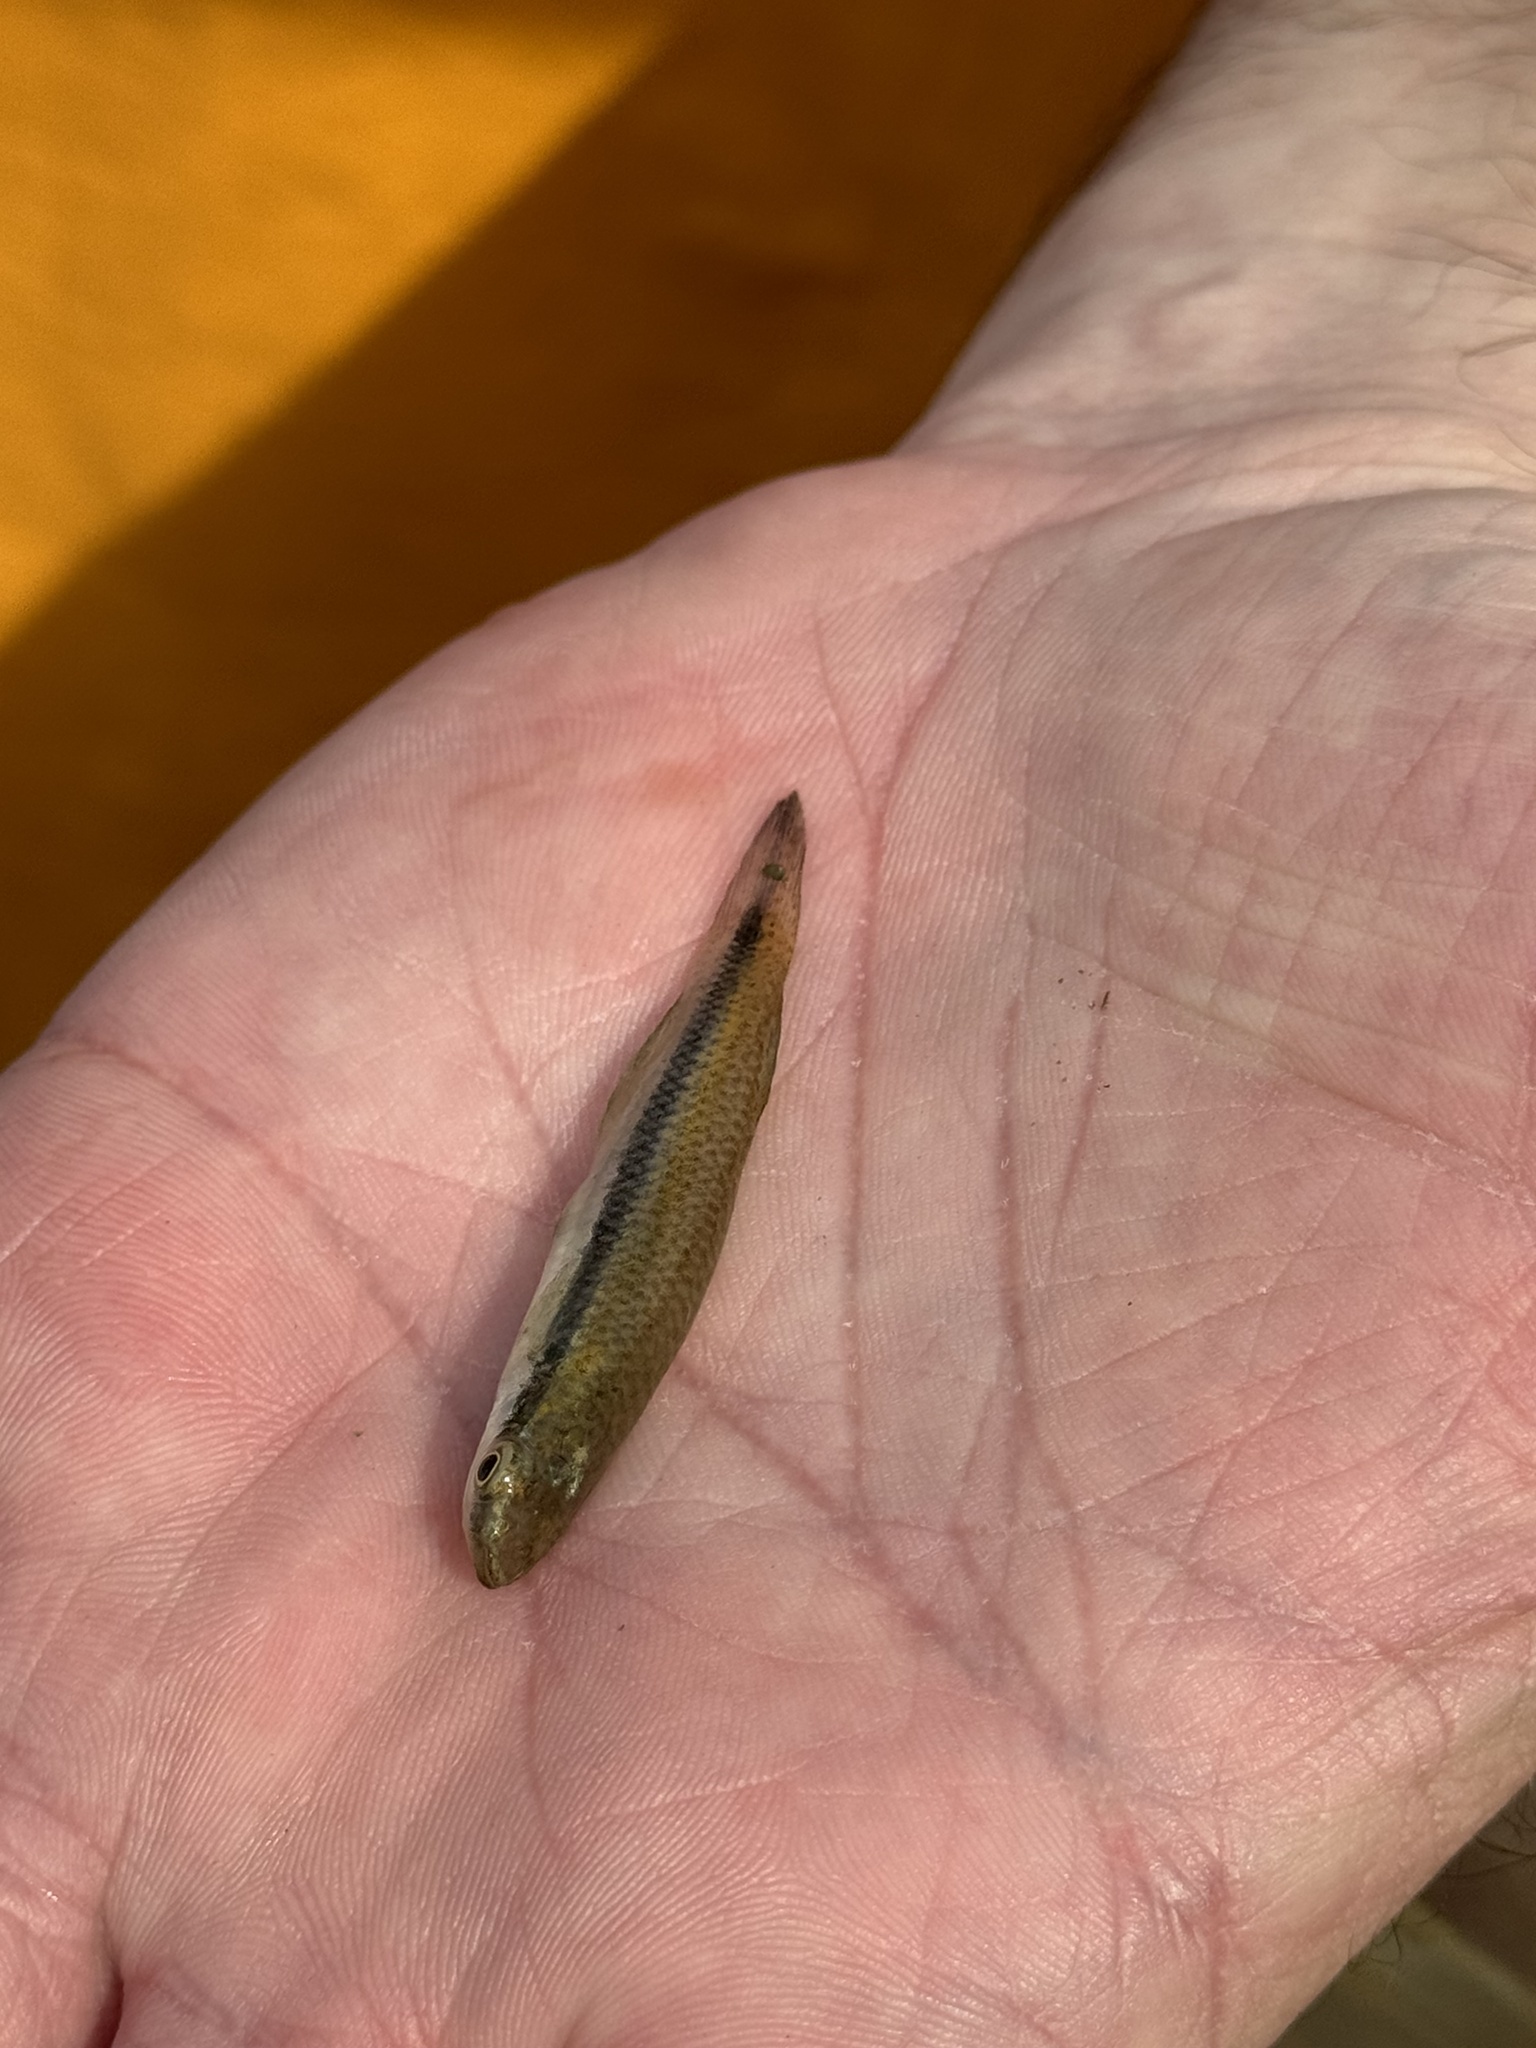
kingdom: Animalia
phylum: Chordata
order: Cyprinodontiformes
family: Fundulidae
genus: Fundulus
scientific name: Fundulus olivaceus
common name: Blackspotted topminnow
